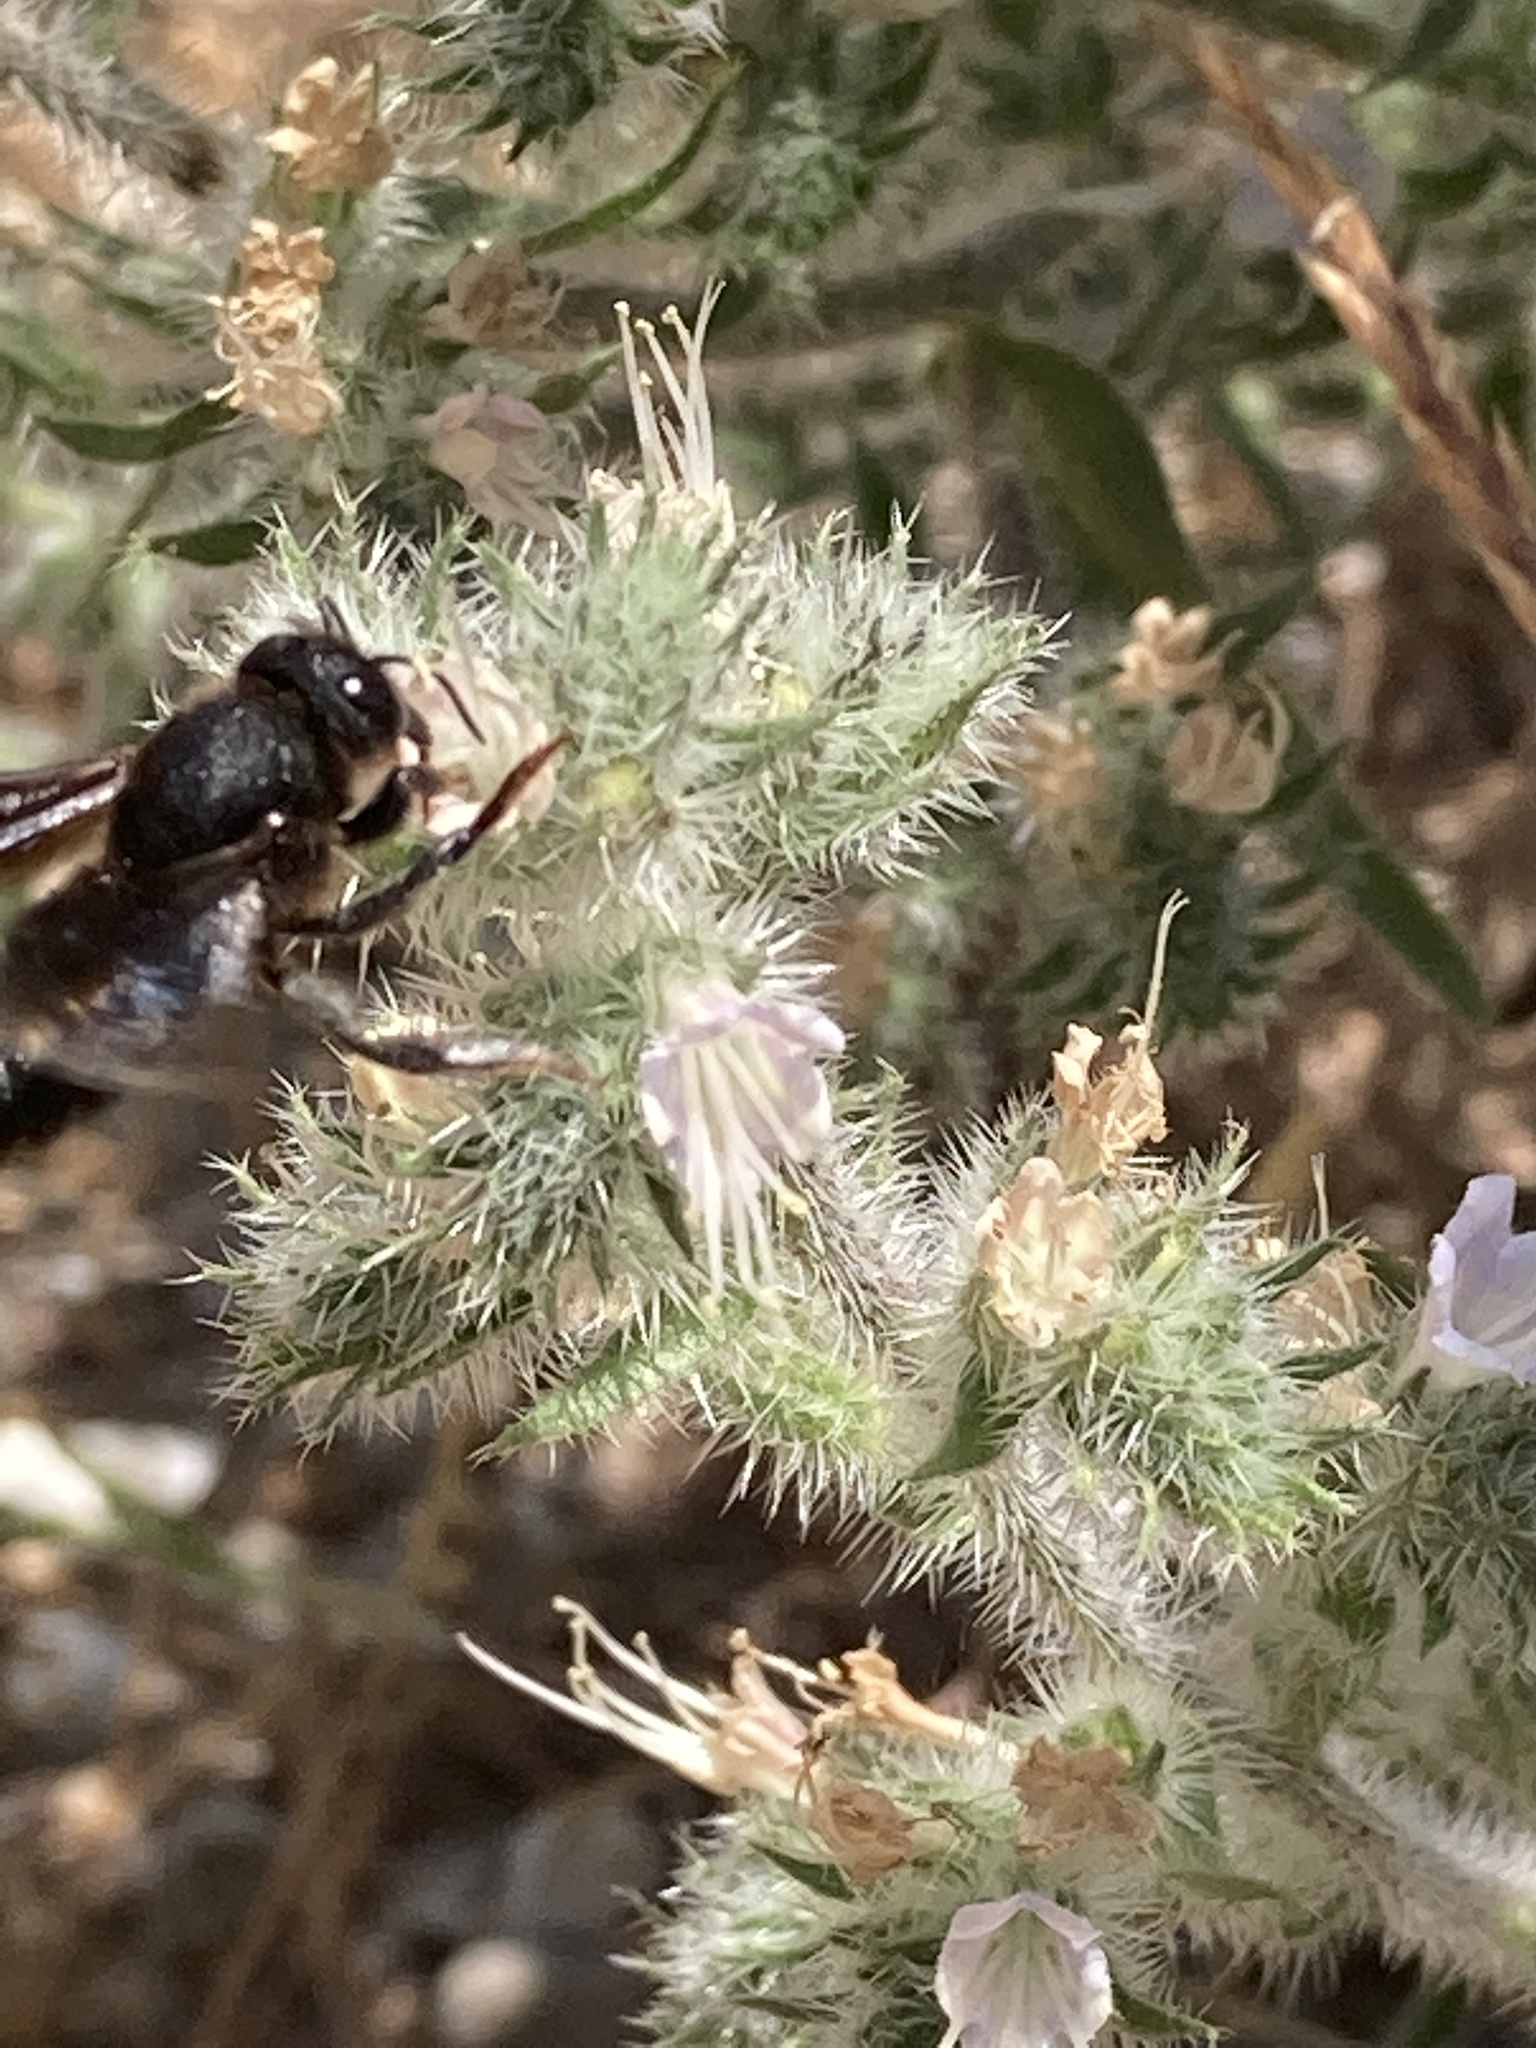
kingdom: Animalia
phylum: Arthropoda
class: Insecta
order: Hymenoptera
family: Megachilidae
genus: Megachile
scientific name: Megachile parietina
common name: Black mud bee
